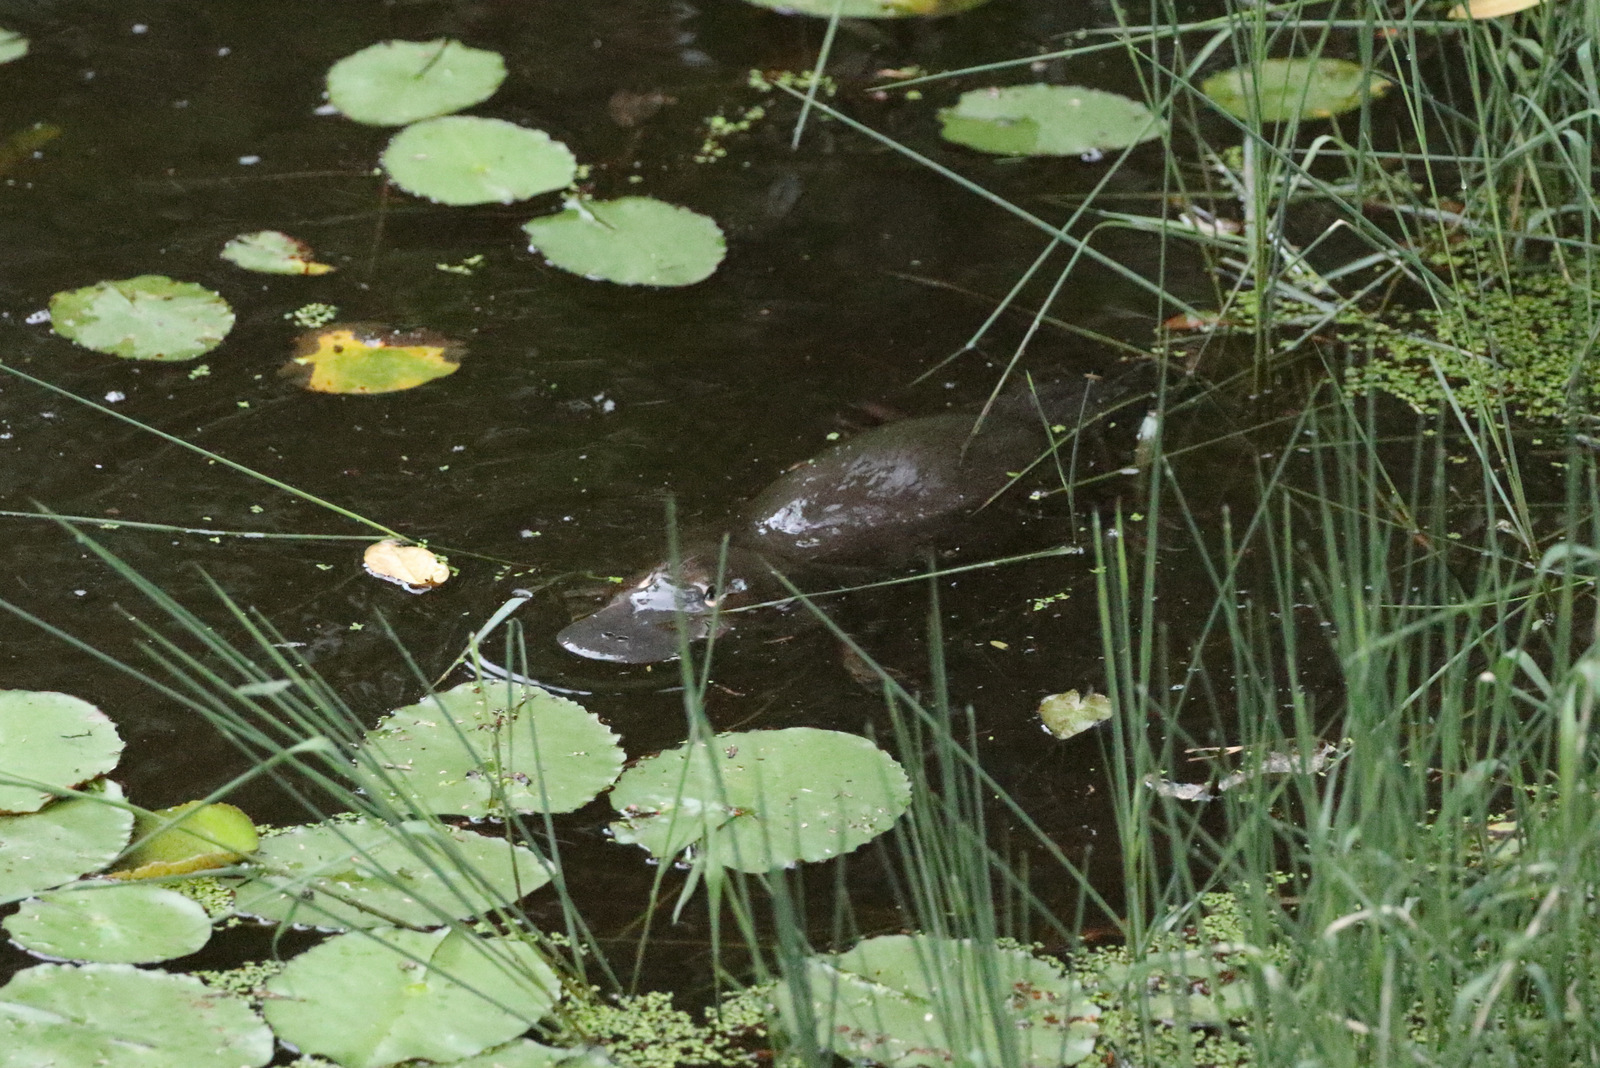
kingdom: Animalia
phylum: Chordata
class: Mammalia
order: Monotremata
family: Ornithorhynchidae
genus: Ornithorhynchus
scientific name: Ornithorhynchus anatinus
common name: Platypus
